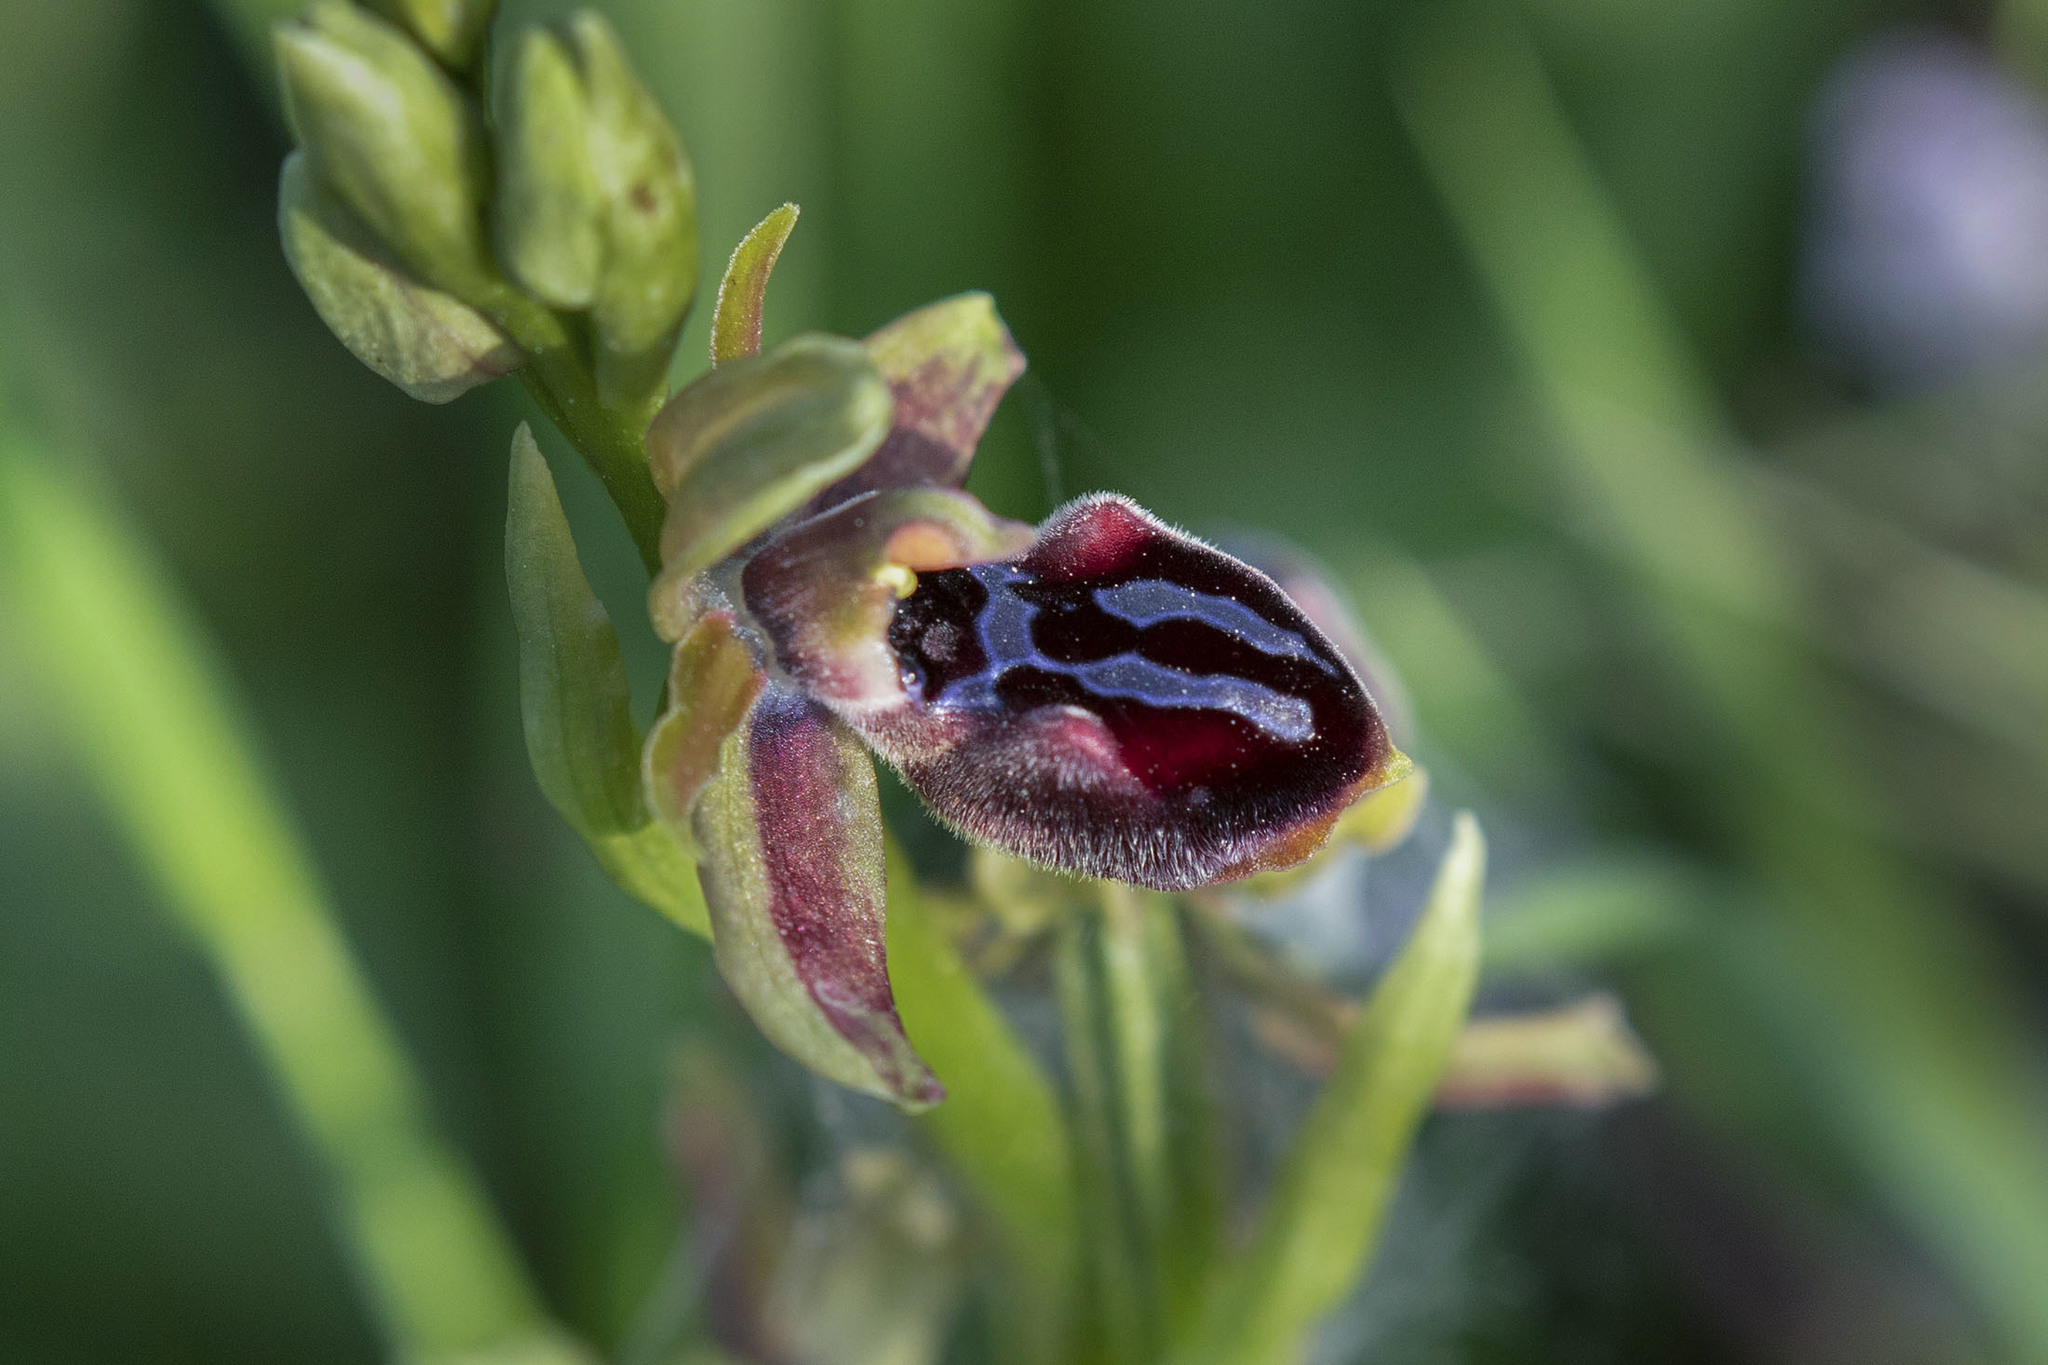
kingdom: Plantae
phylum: Tracheophyta
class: Liliopsida
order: Asparagales
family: Orchidaceae
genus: Ophrys
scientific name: Ophrys sphegodes
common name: Early spider-orchid
